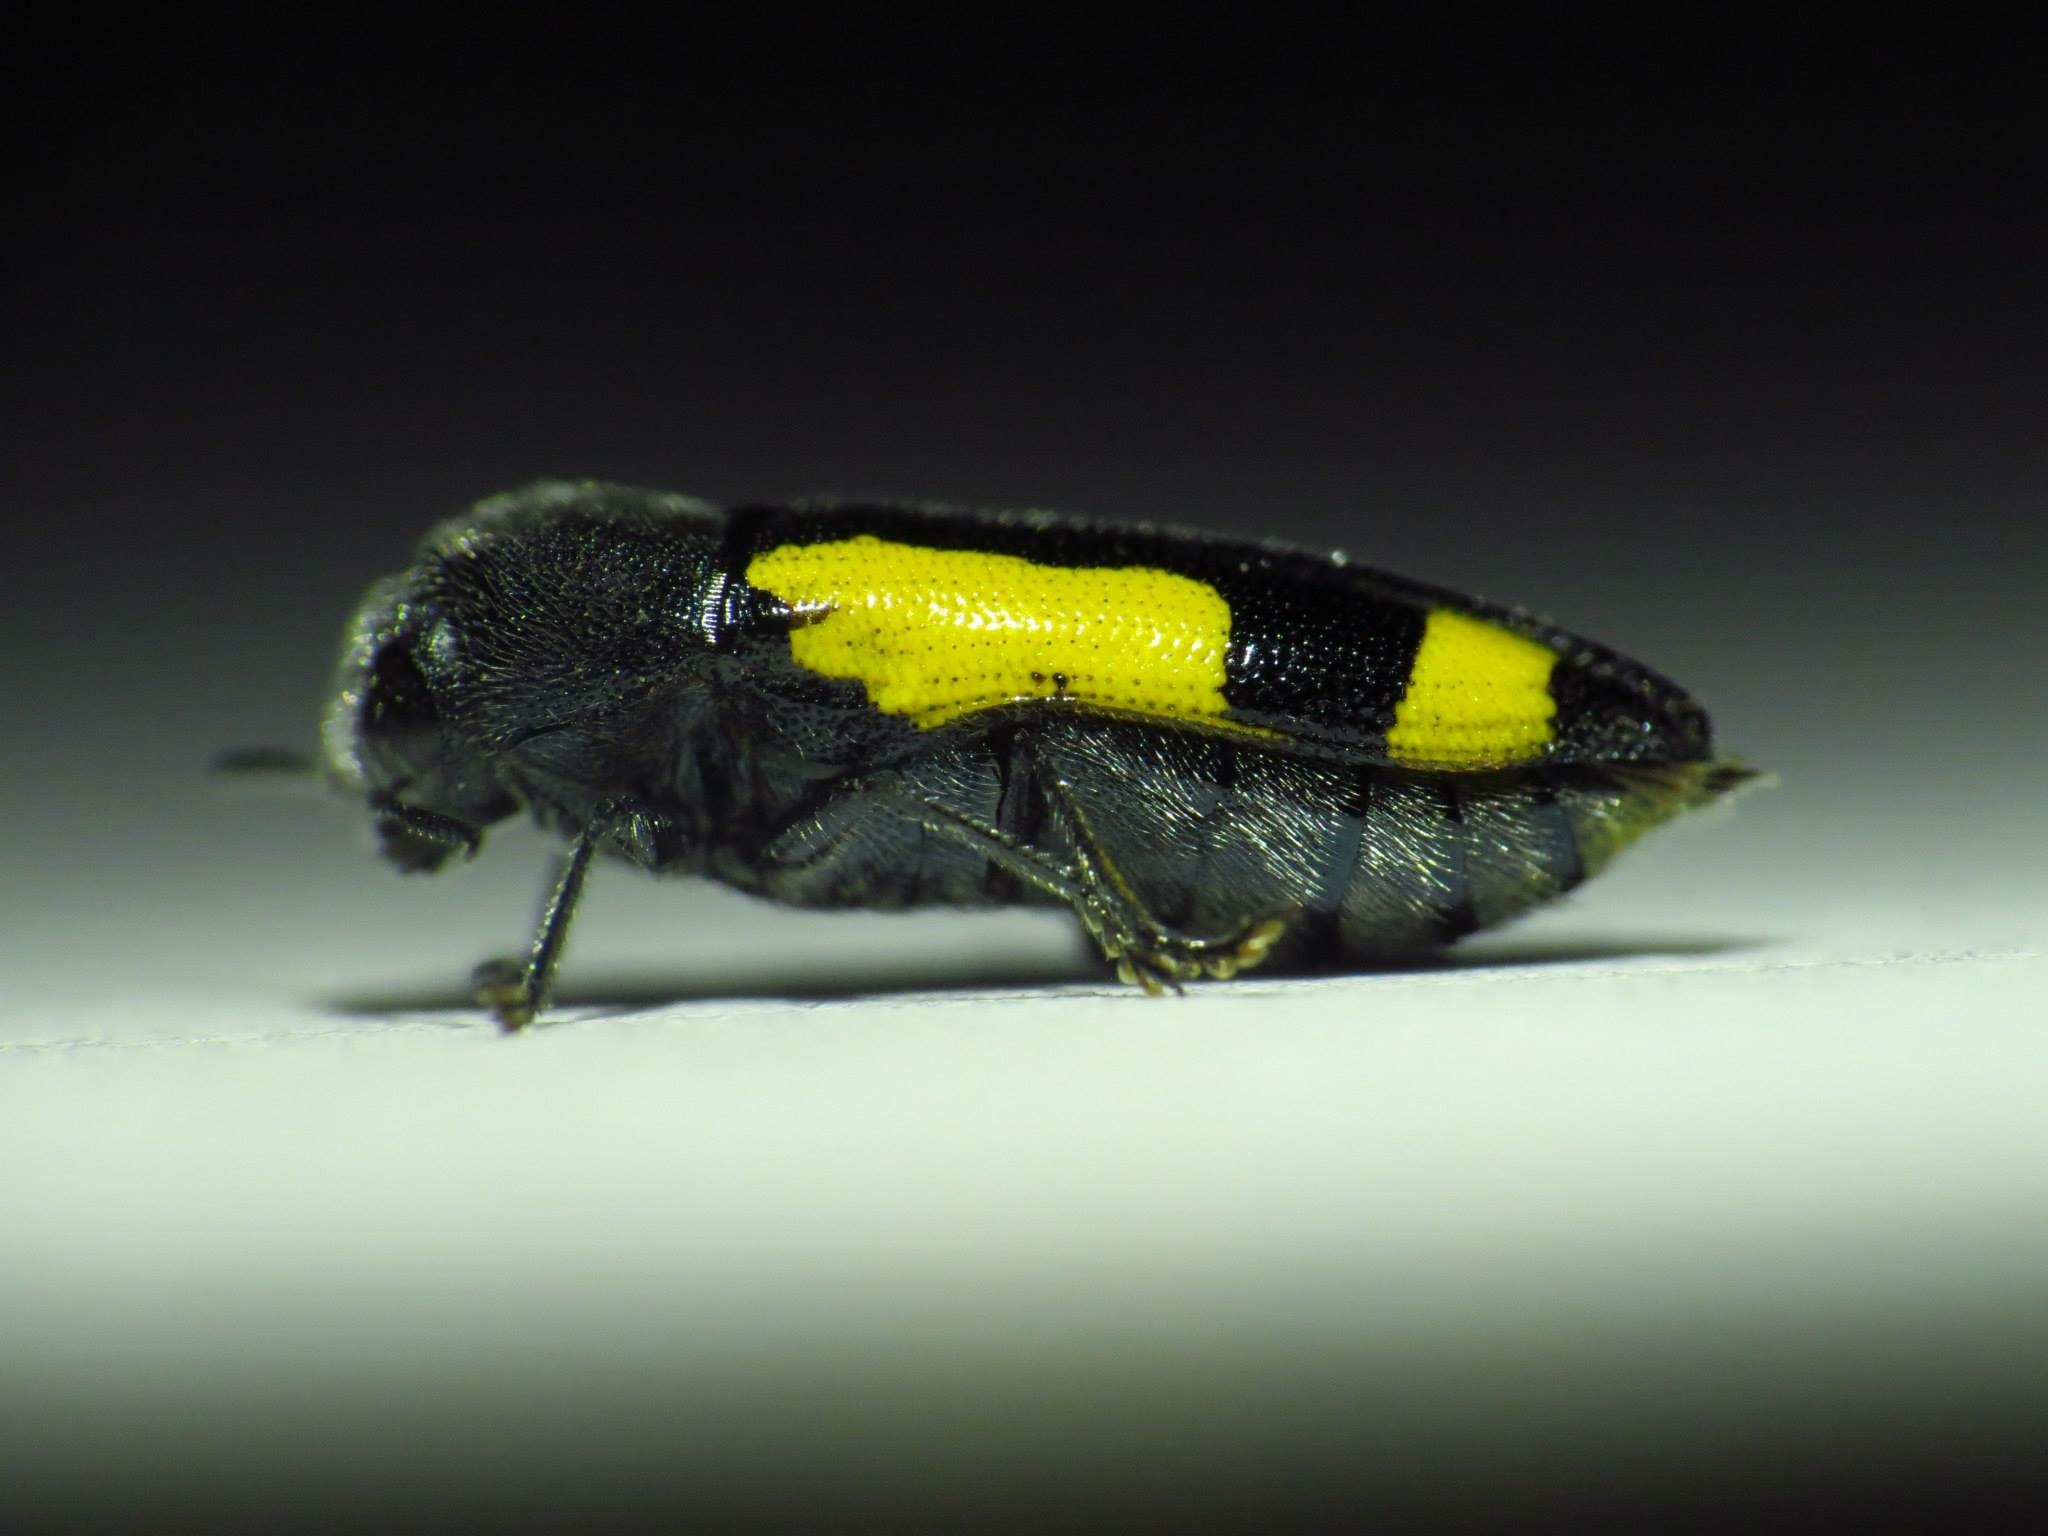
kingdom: Animalia
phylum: Arthropoda
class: Insecta
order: Coleoptera
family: Buprestidae
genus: Ptosima
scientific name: Ptosima gibbicollis
